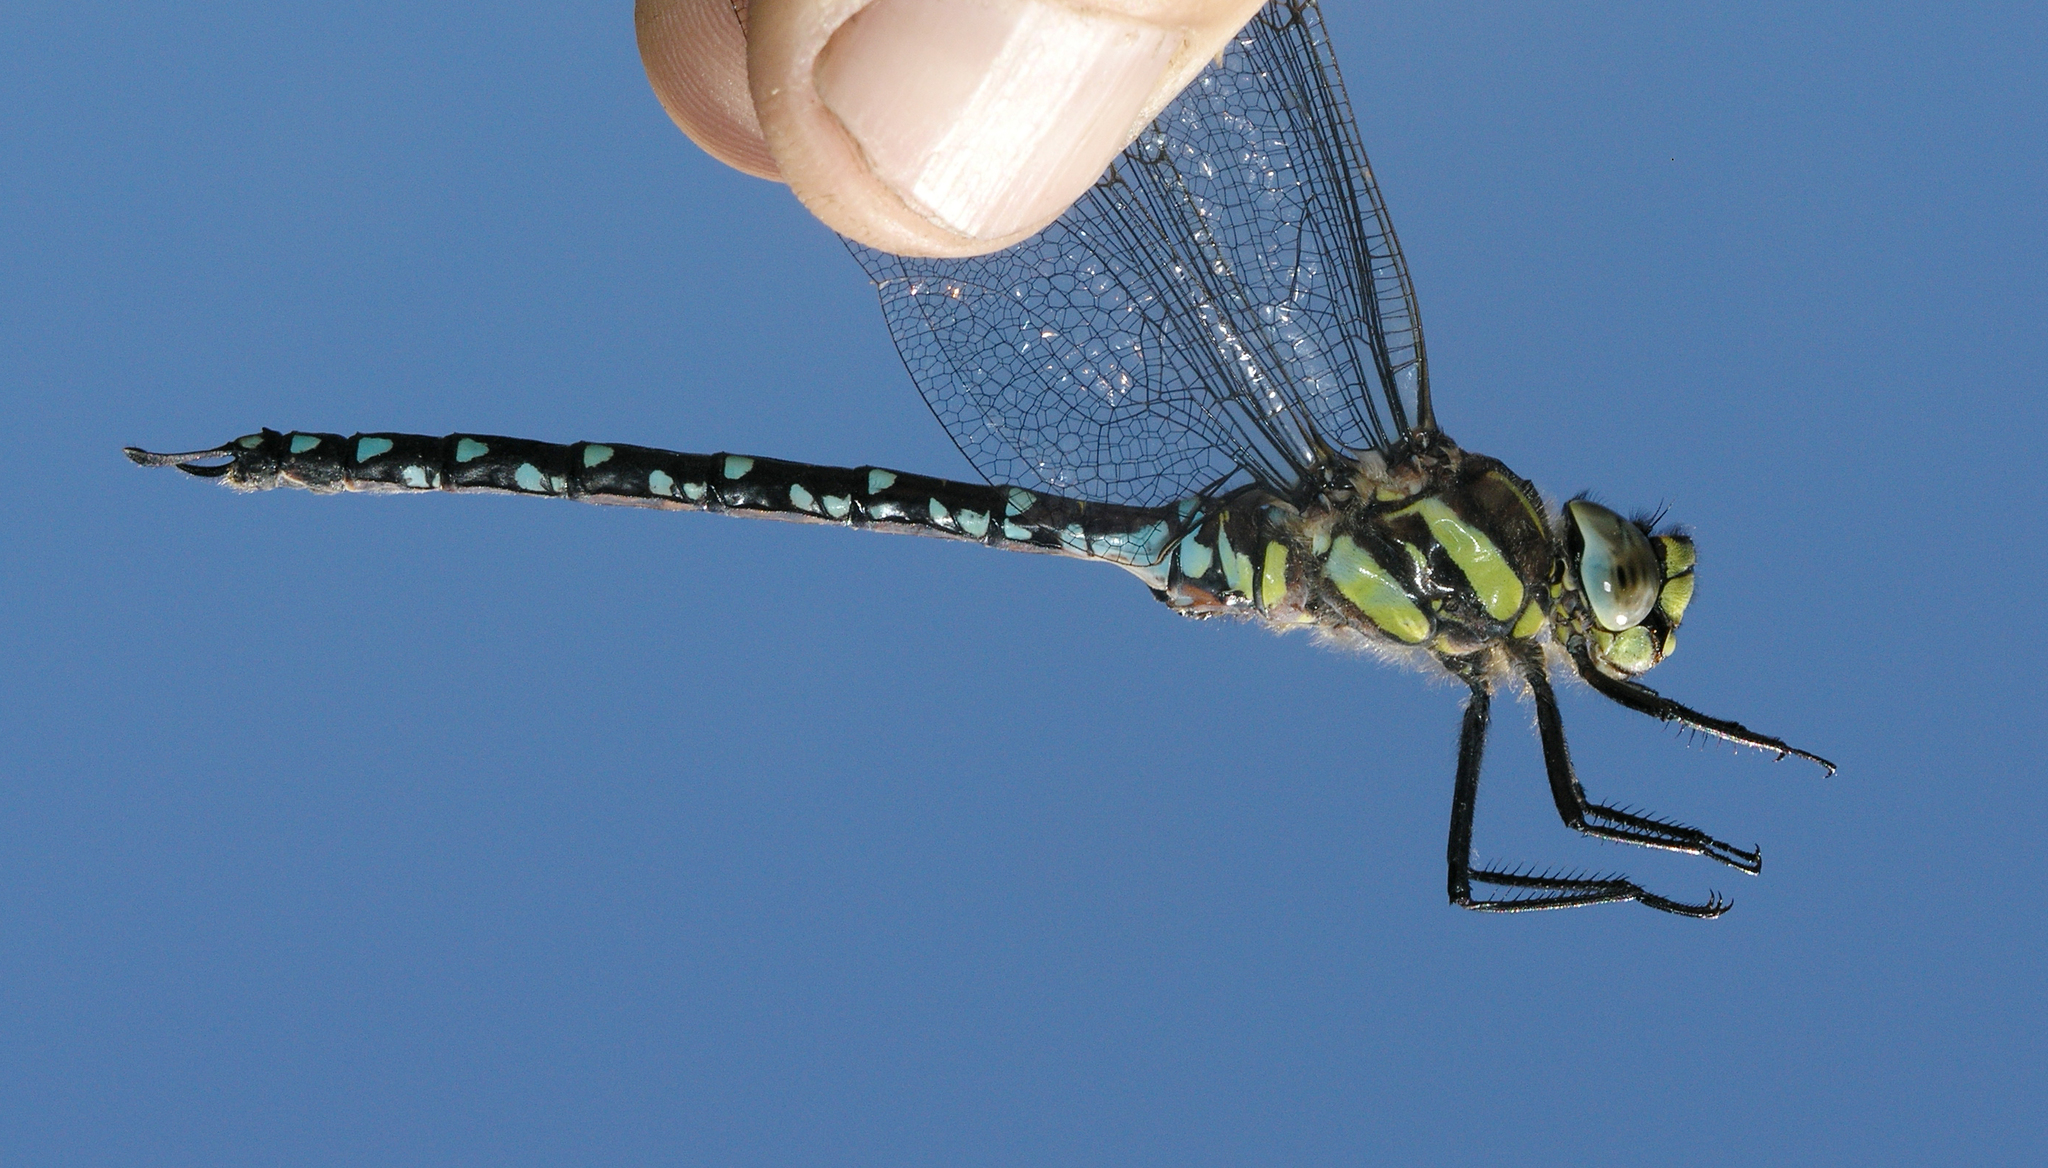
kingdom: Animalia
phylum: Arthropoda
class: Insecta
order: Odonata
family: Aeshnidae
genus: Aeshna
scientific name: Aeshna juncea
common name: Moorland hawker
